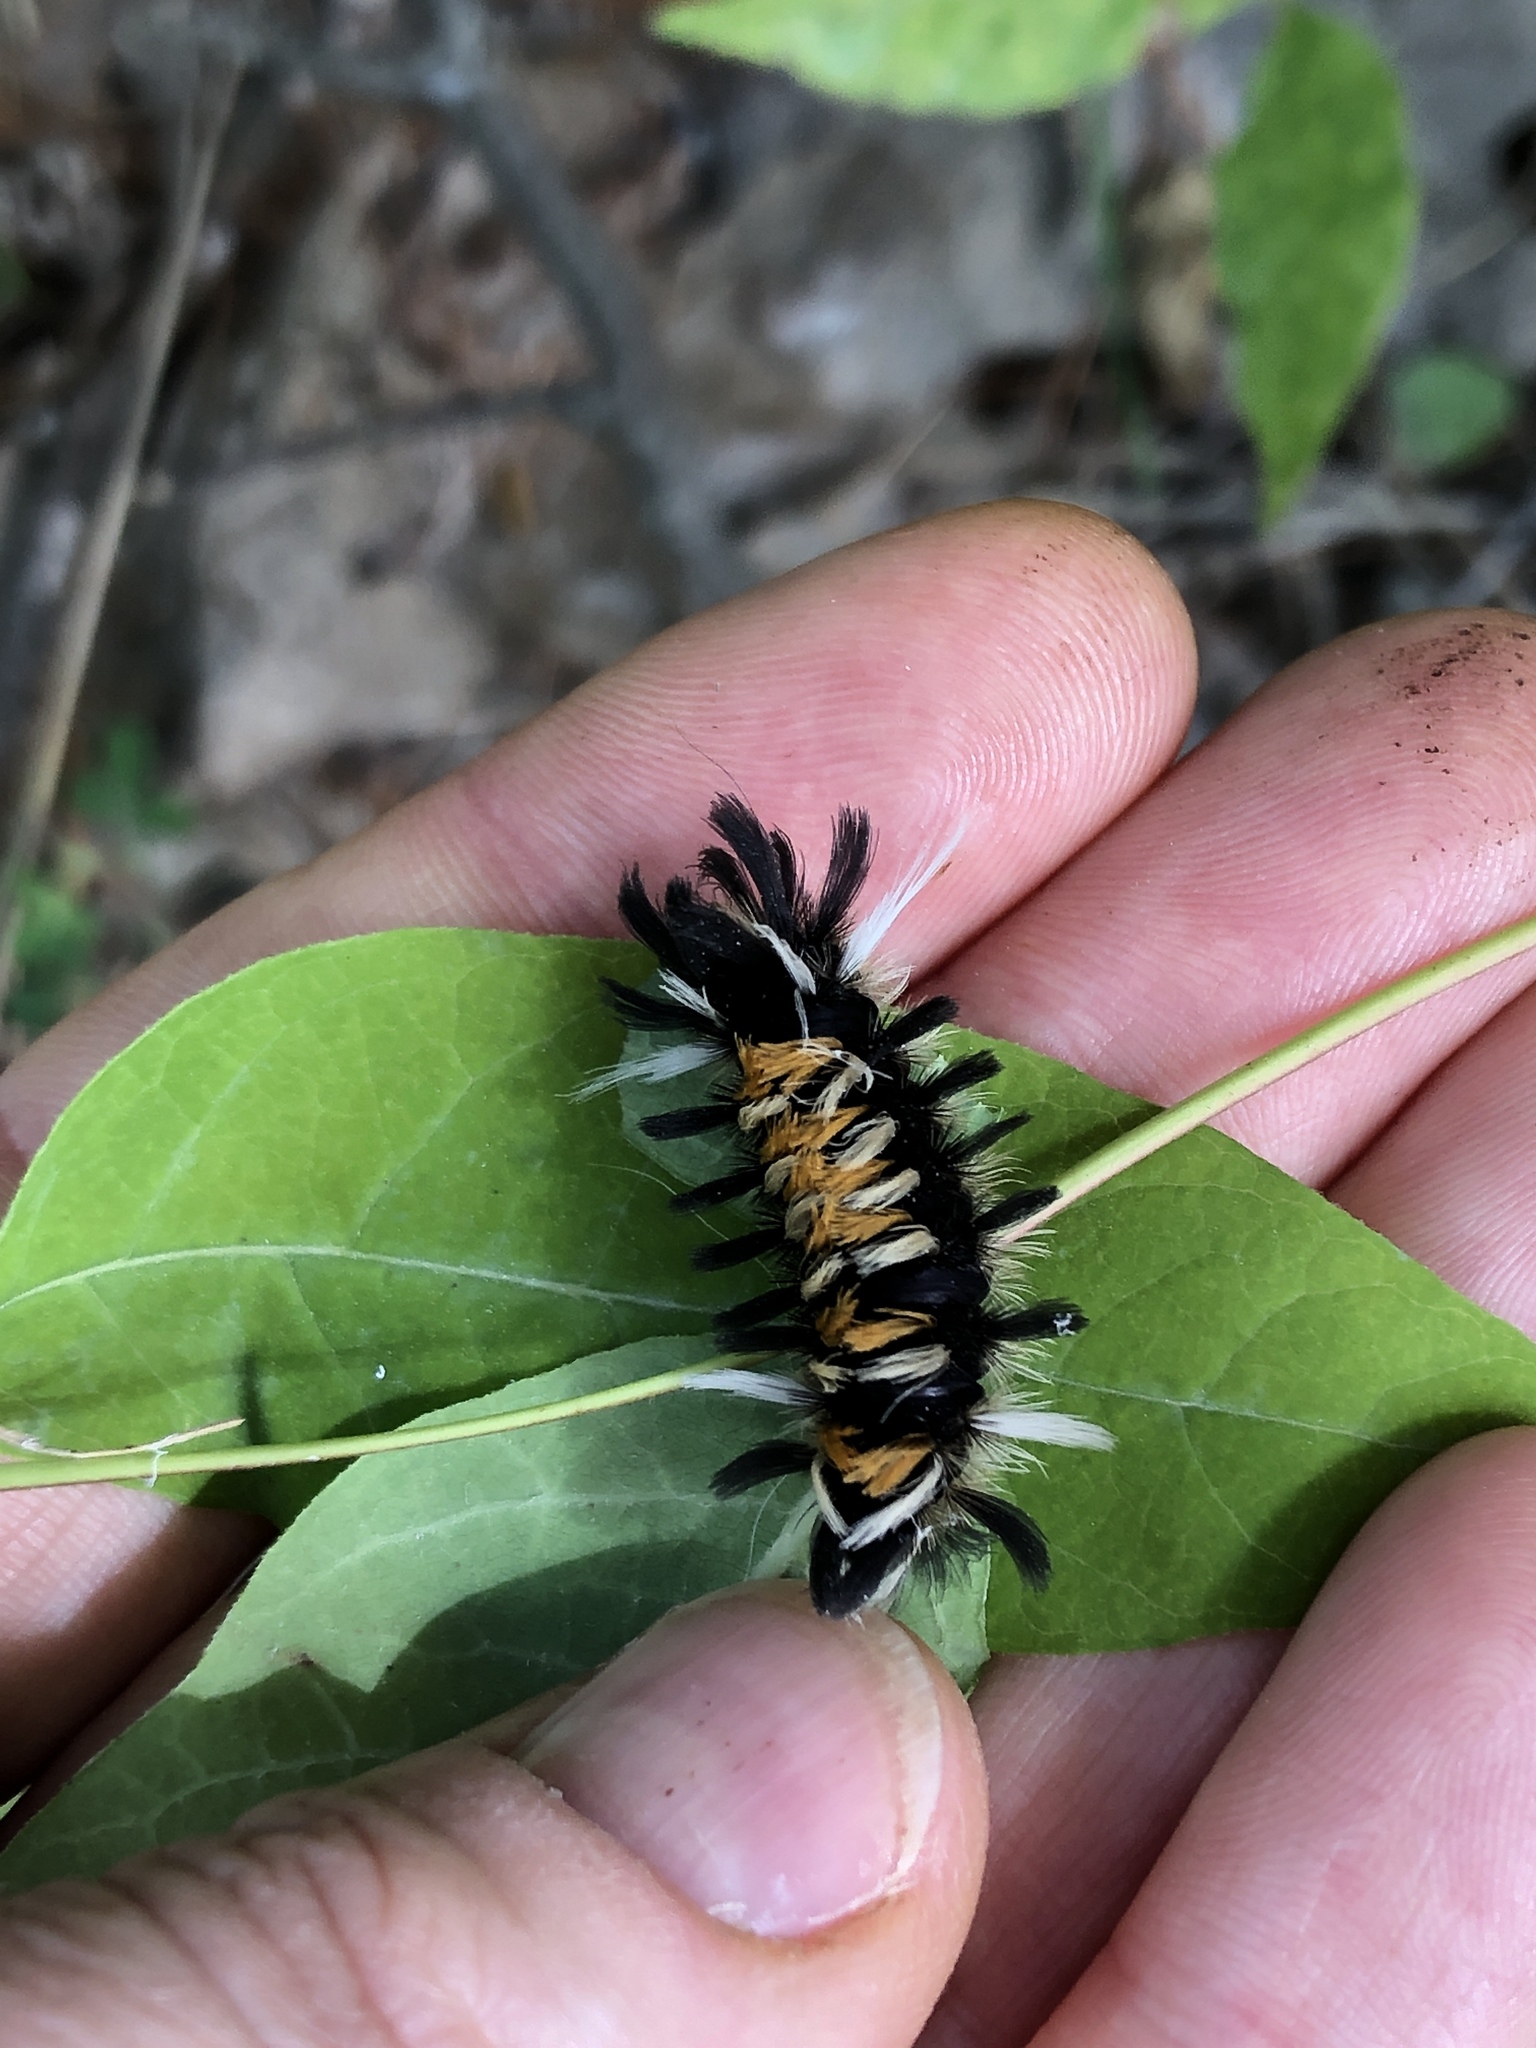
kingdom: Animalia
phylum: Arthropoda
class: Insecta
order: Lepidoptera
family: Erebidae
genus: Euchaetes
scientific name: Euchaetes egle
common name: Milkweed tussock moth
